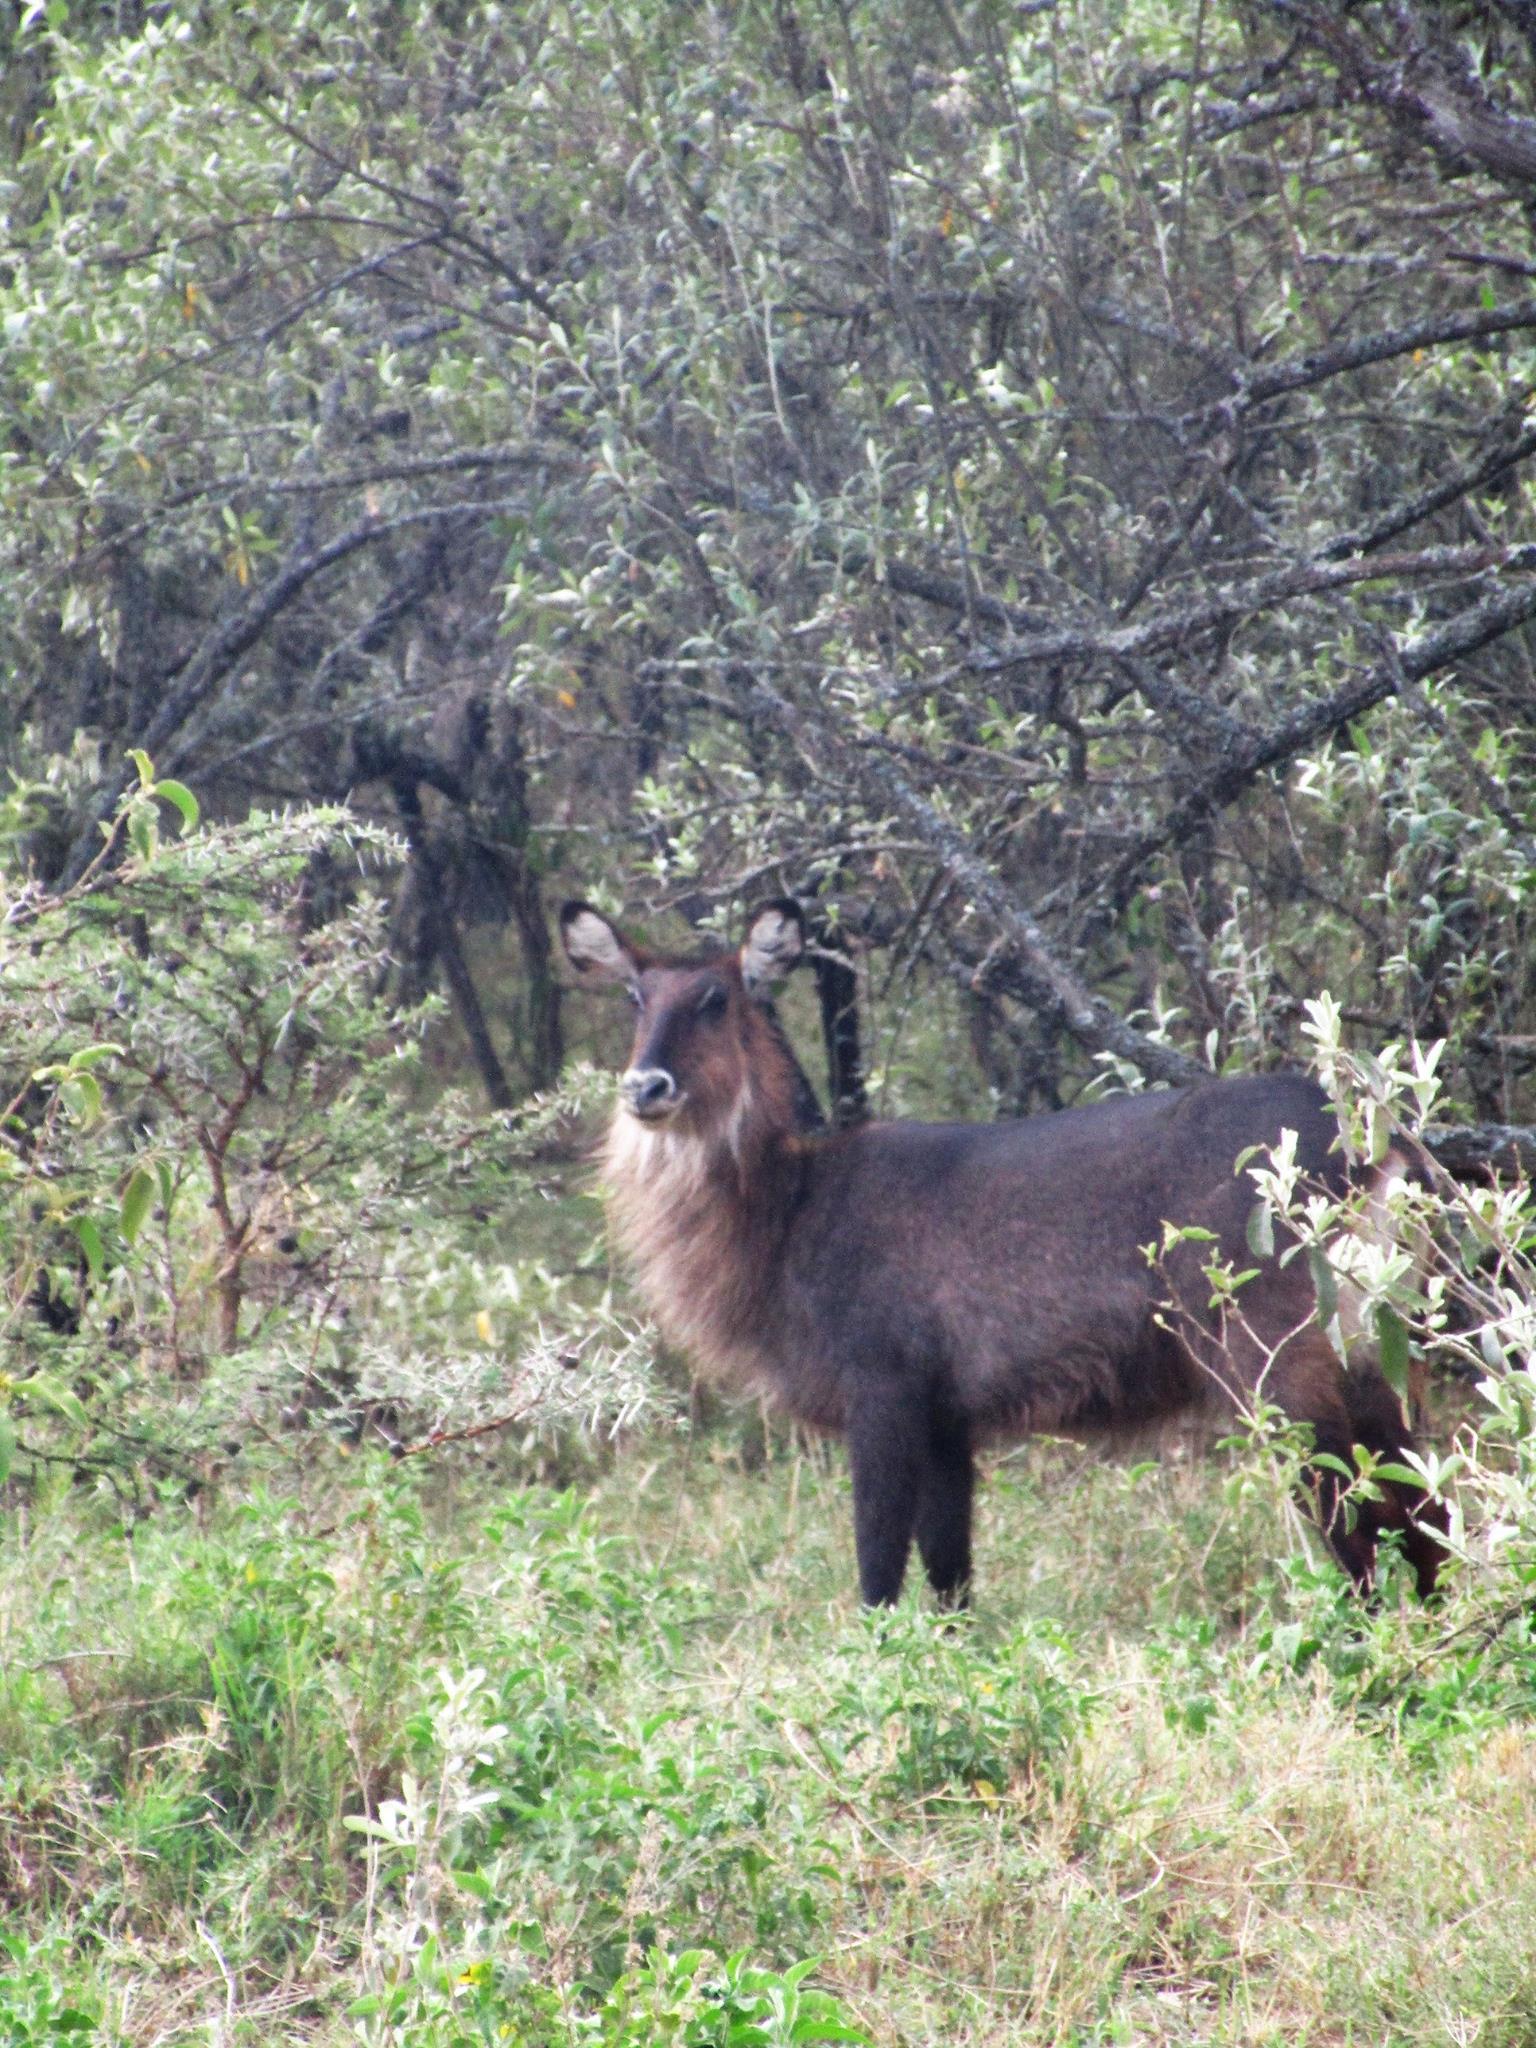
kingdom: Animalia
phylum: Chordata
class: Mammalia
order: Artiodactyla
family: Bovidae
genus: Kobus
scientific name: Kobus ellipsiprymnus
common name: Waterbuck
